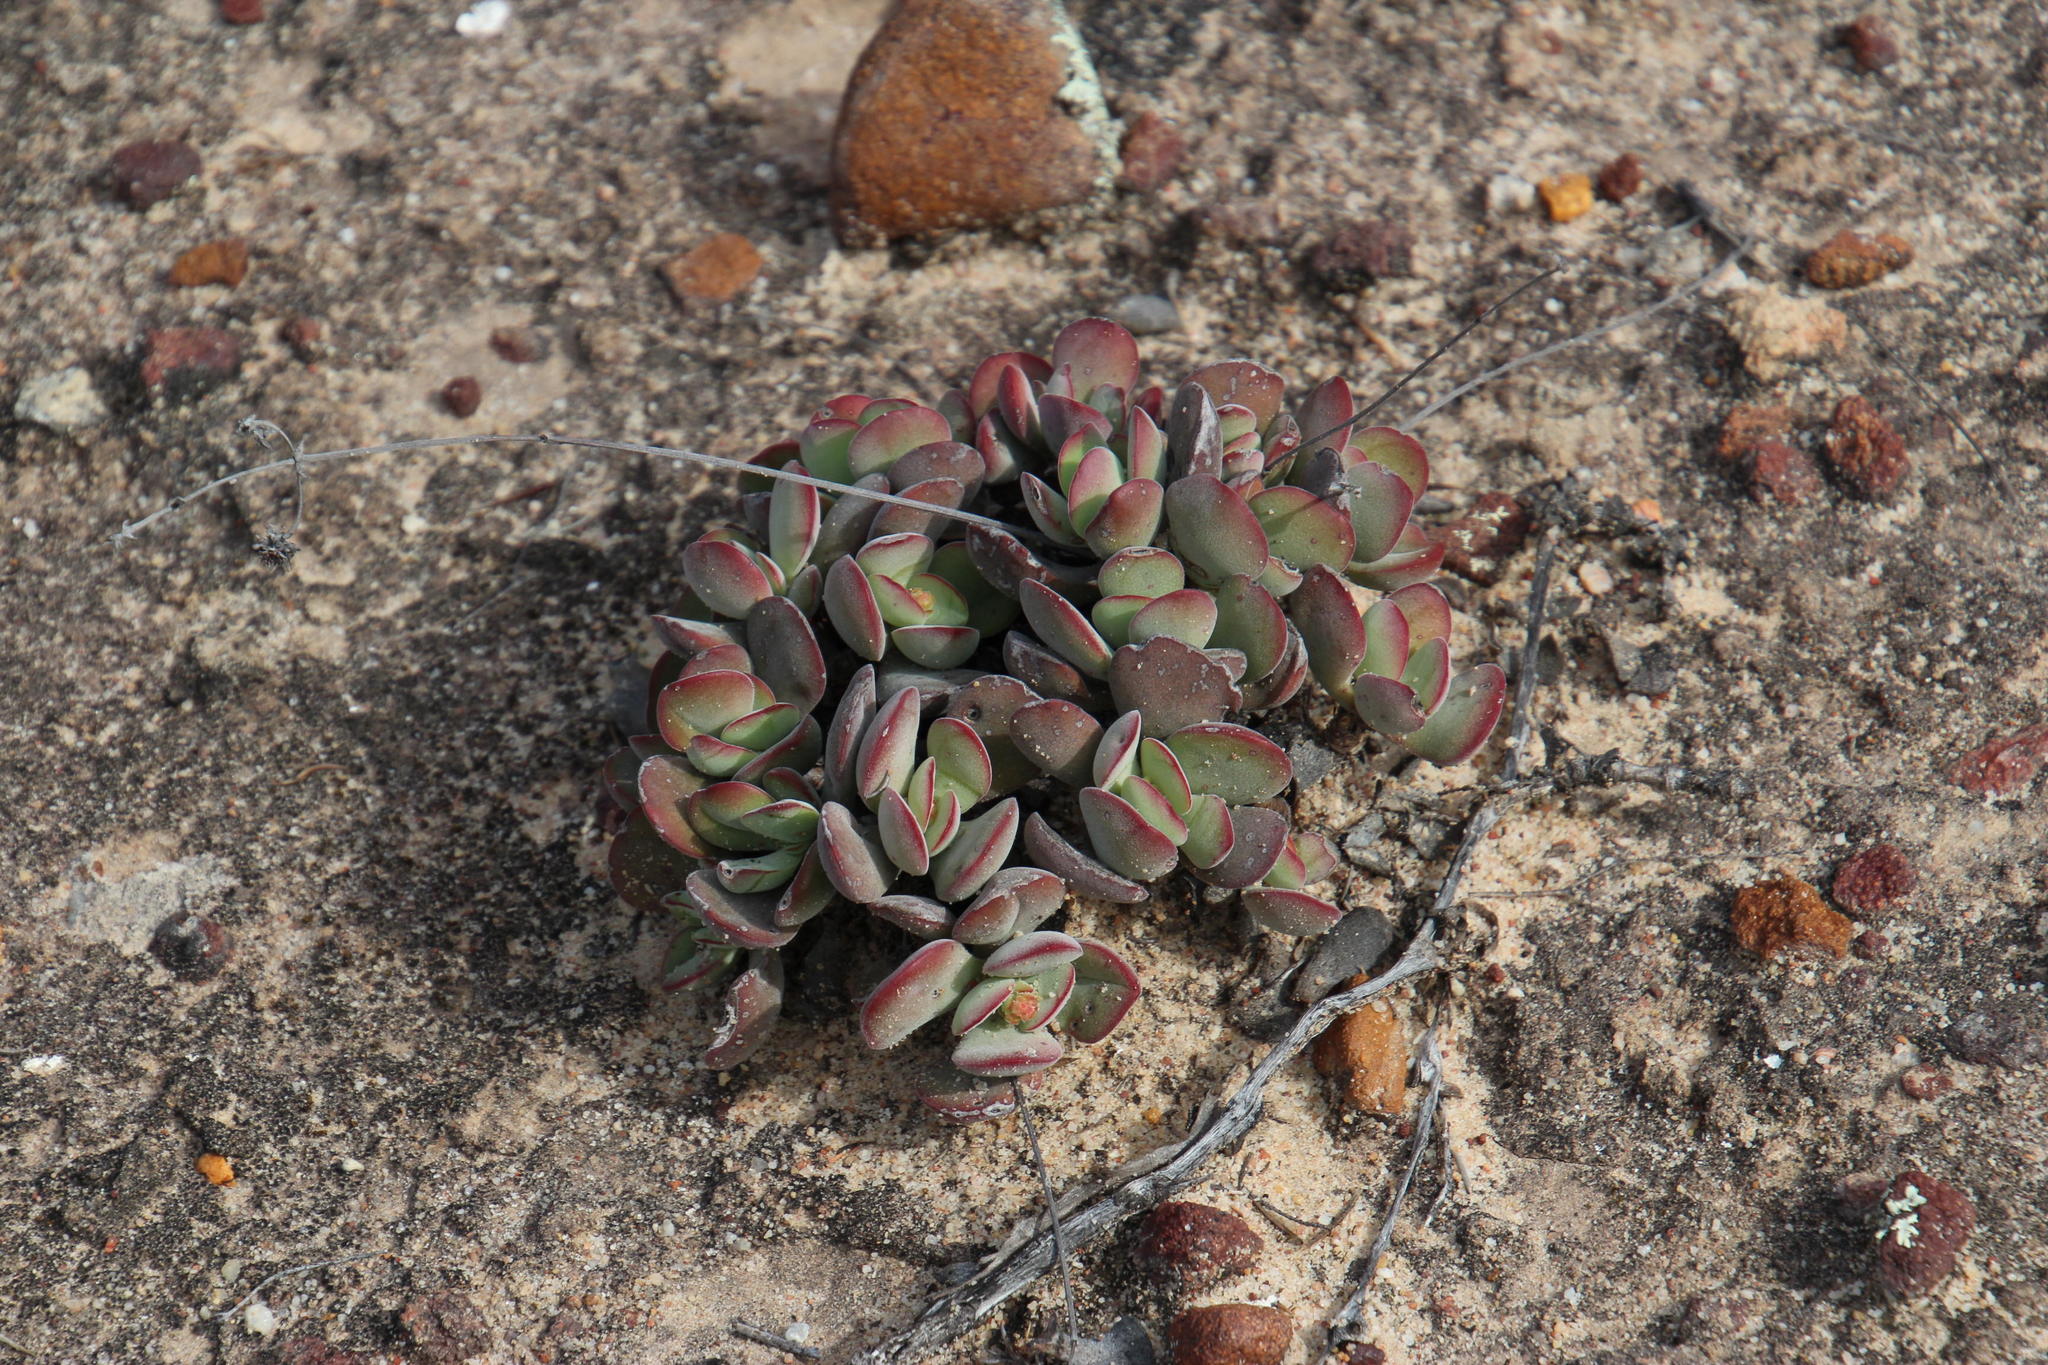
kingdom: Plantae
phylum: Tracheophyta
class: Magnoliopsida
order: Saxifragales
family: Crassulaceae
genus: Crassula
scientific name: Crassula atropurpurea
